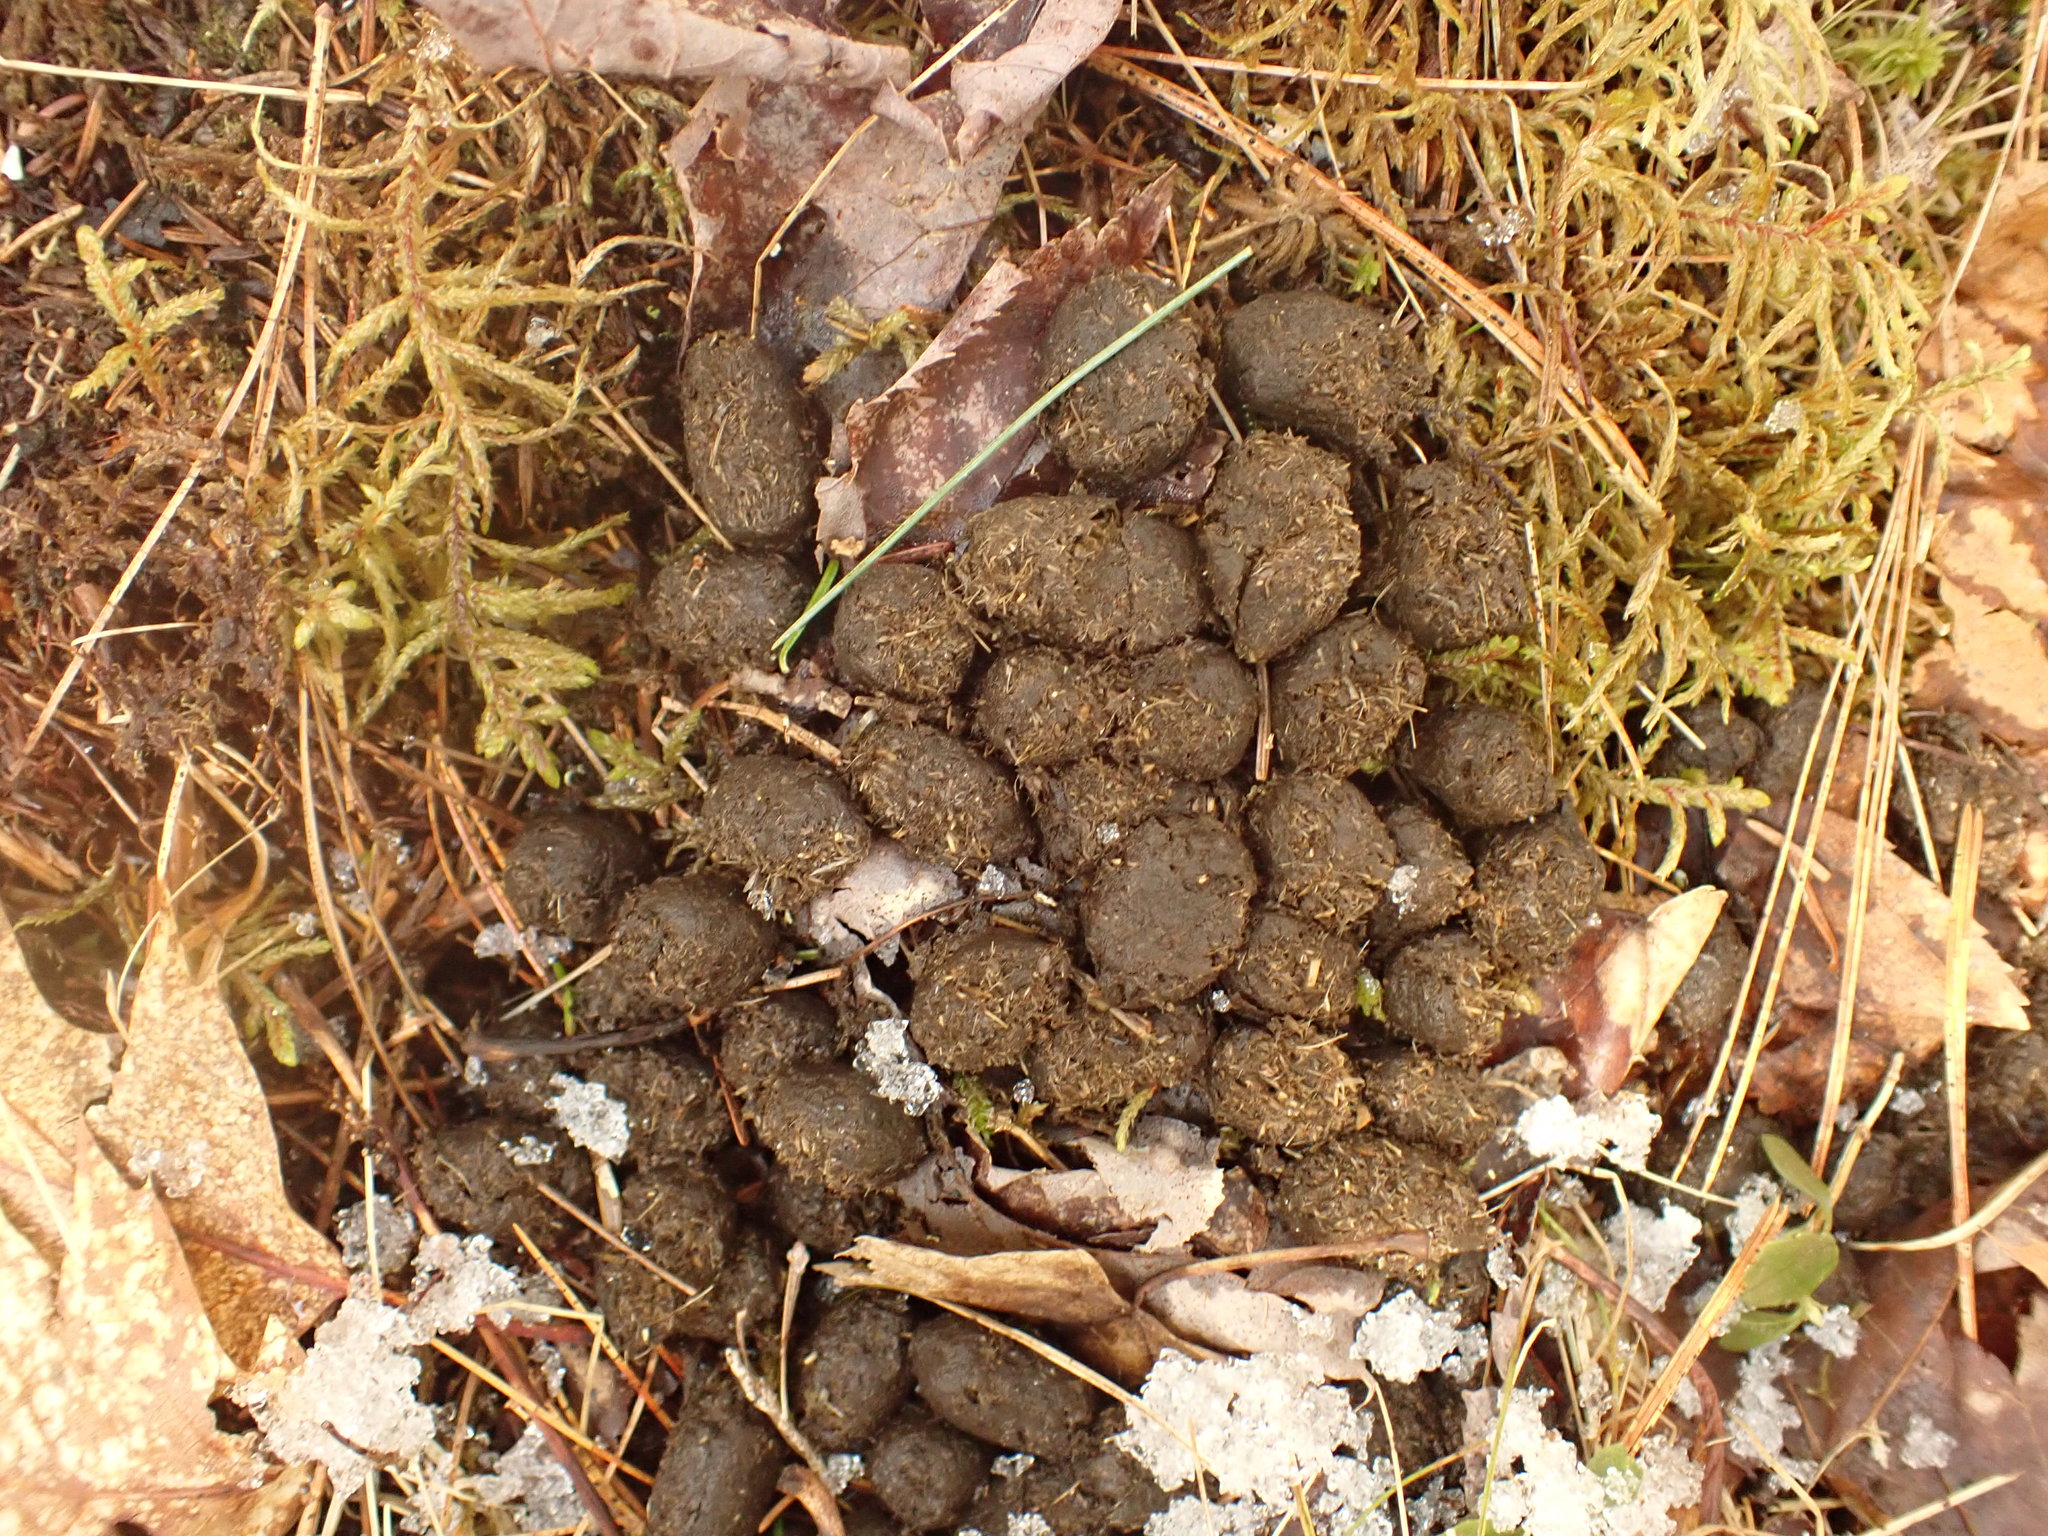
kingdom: Animalia
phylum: Chordata
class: Mammalia
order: Artiodactyla
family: Cervidae
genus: Odocoileus
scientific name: Odocoileus virginianus
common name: White-tailed deer
